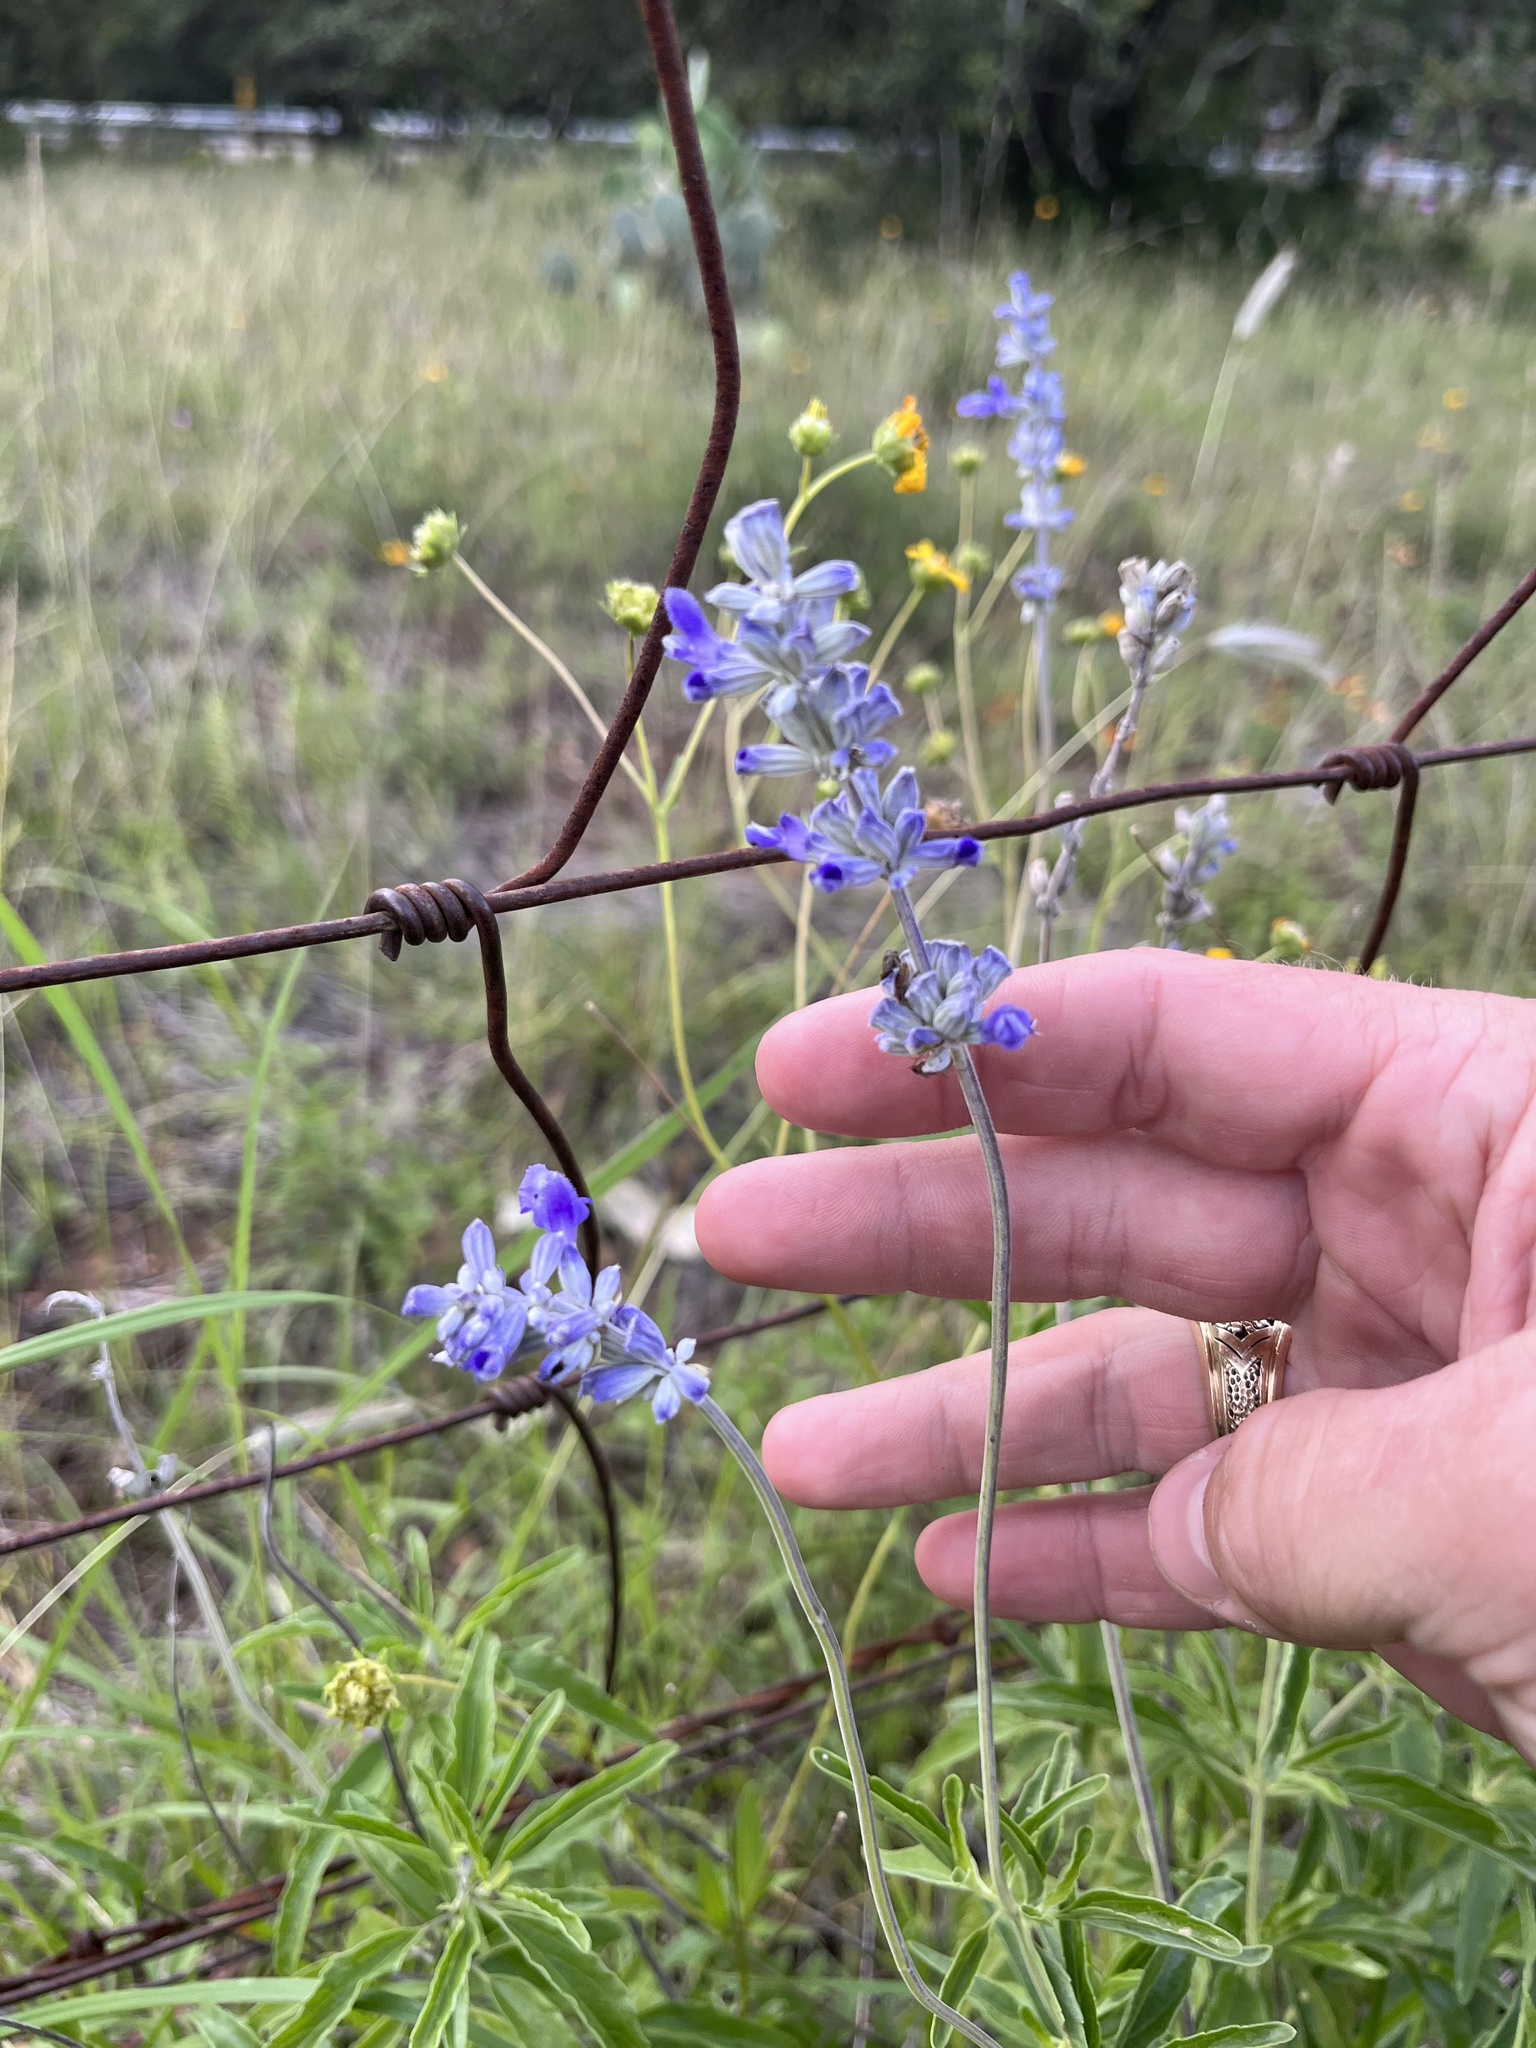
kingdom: Plantae
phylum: Tracheophyta
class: Magnoliopsida
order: Lamiales
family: Lamiaceae
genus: Salvia
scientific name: Salvia farinacea
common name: Mealy sage
